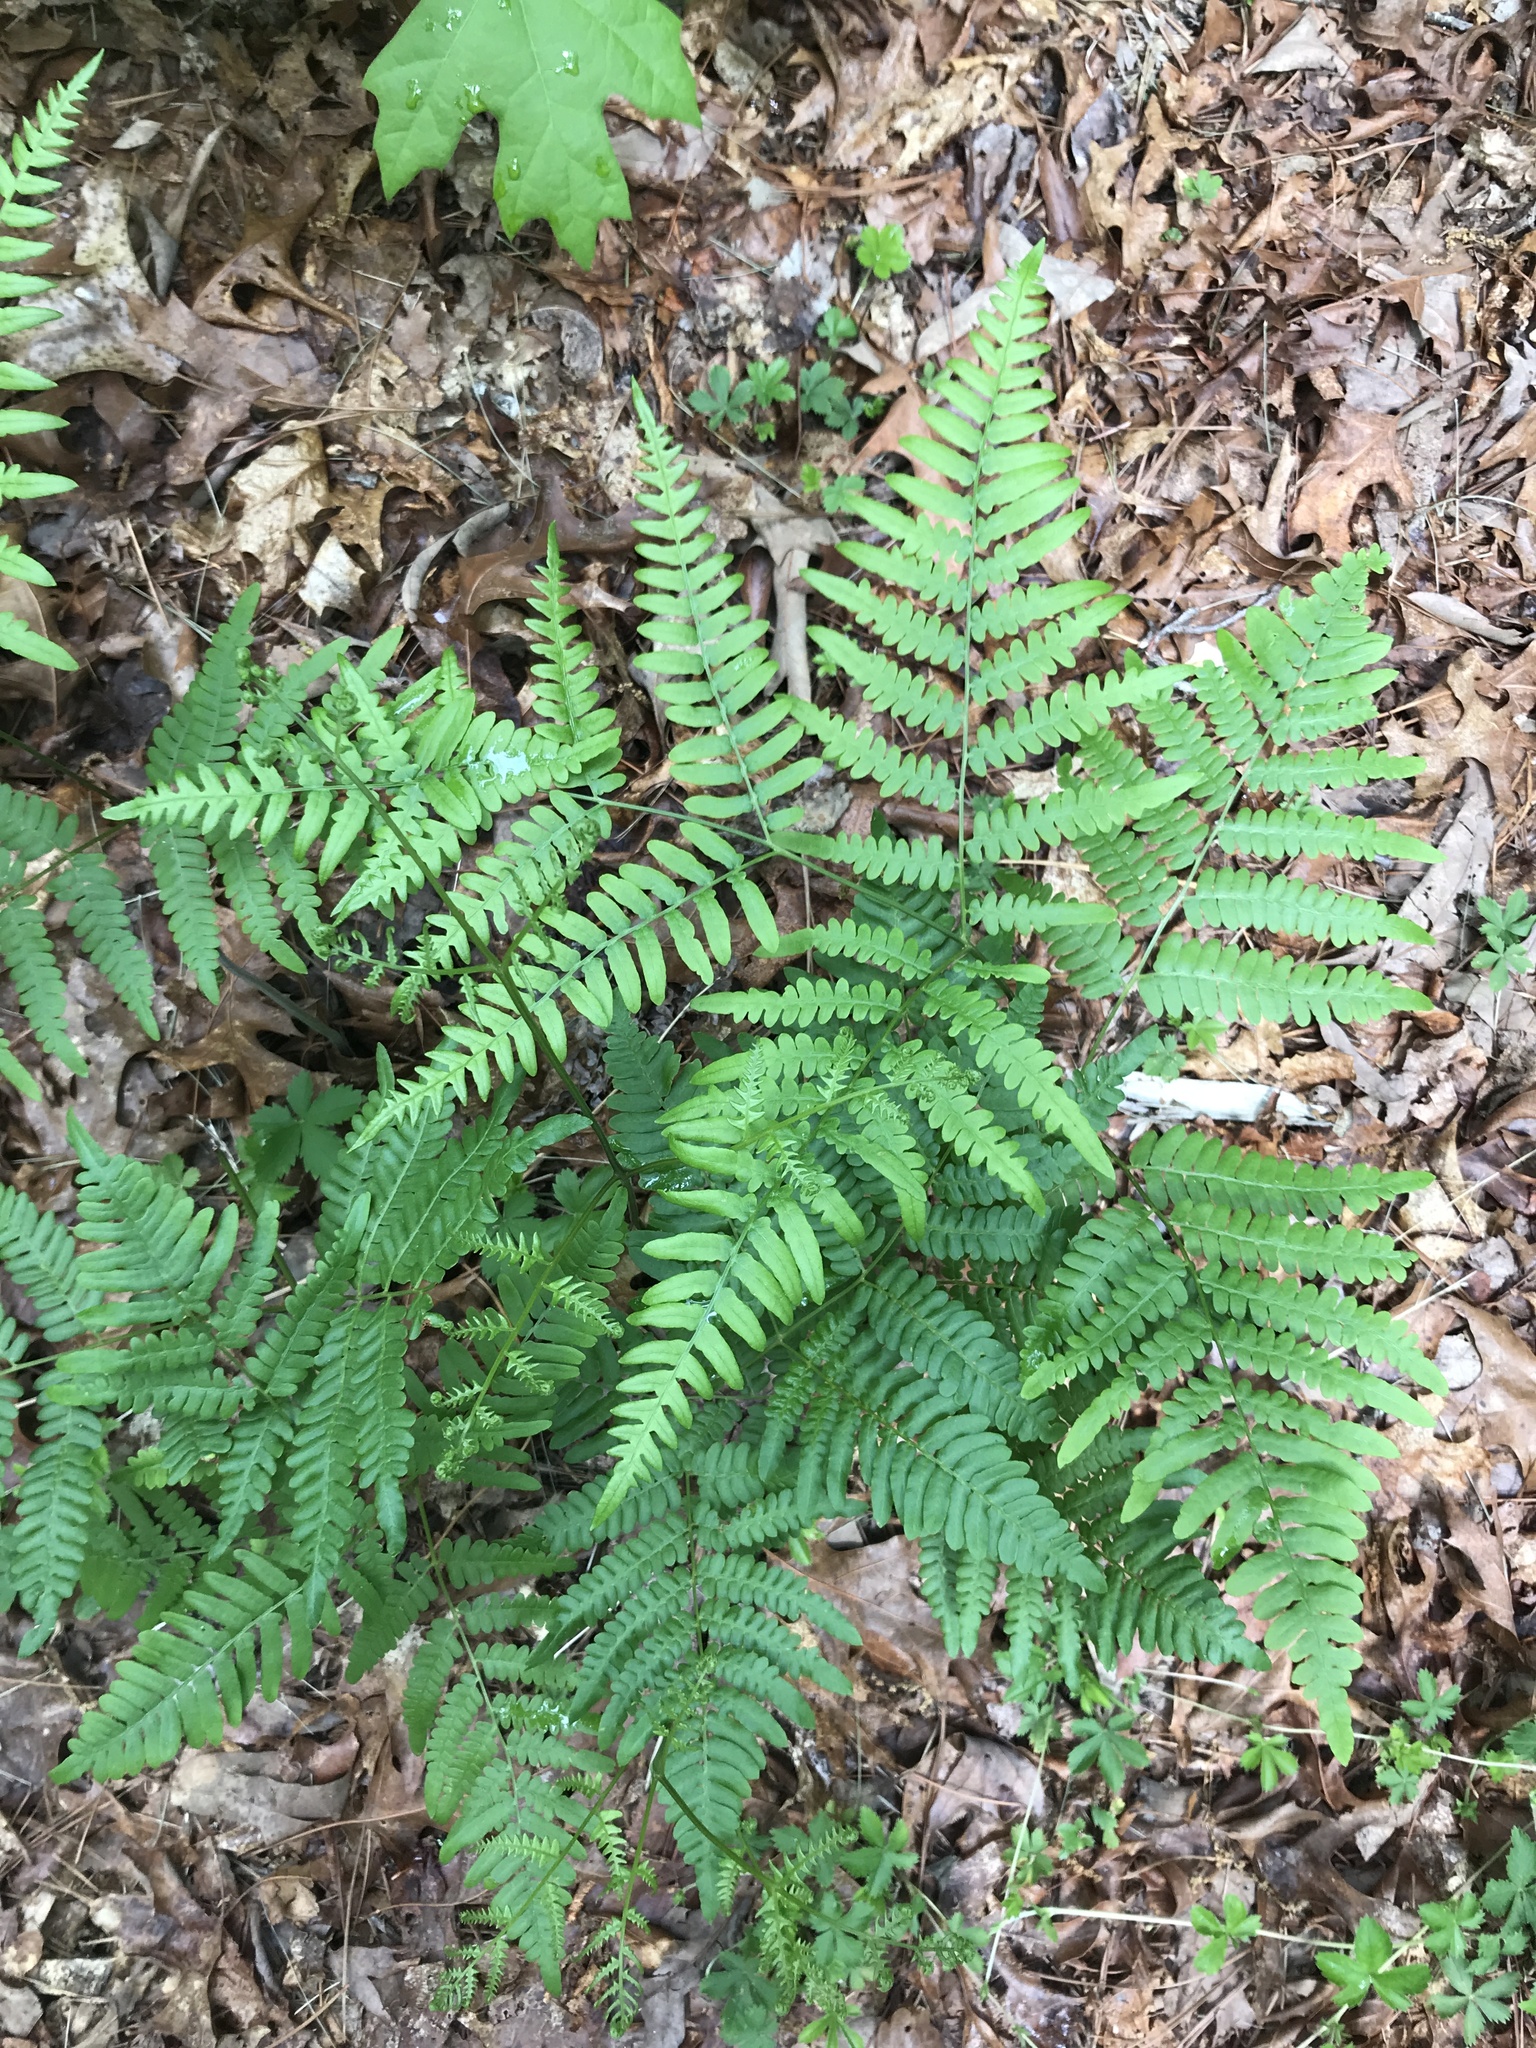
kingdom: Plantae
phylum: Tracheophyta
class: Polypodiopsida
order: Polypodiales
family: Dennstaedtiaceae
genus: Pteridium
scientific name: Pteridium aquilinum
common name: Bracken
